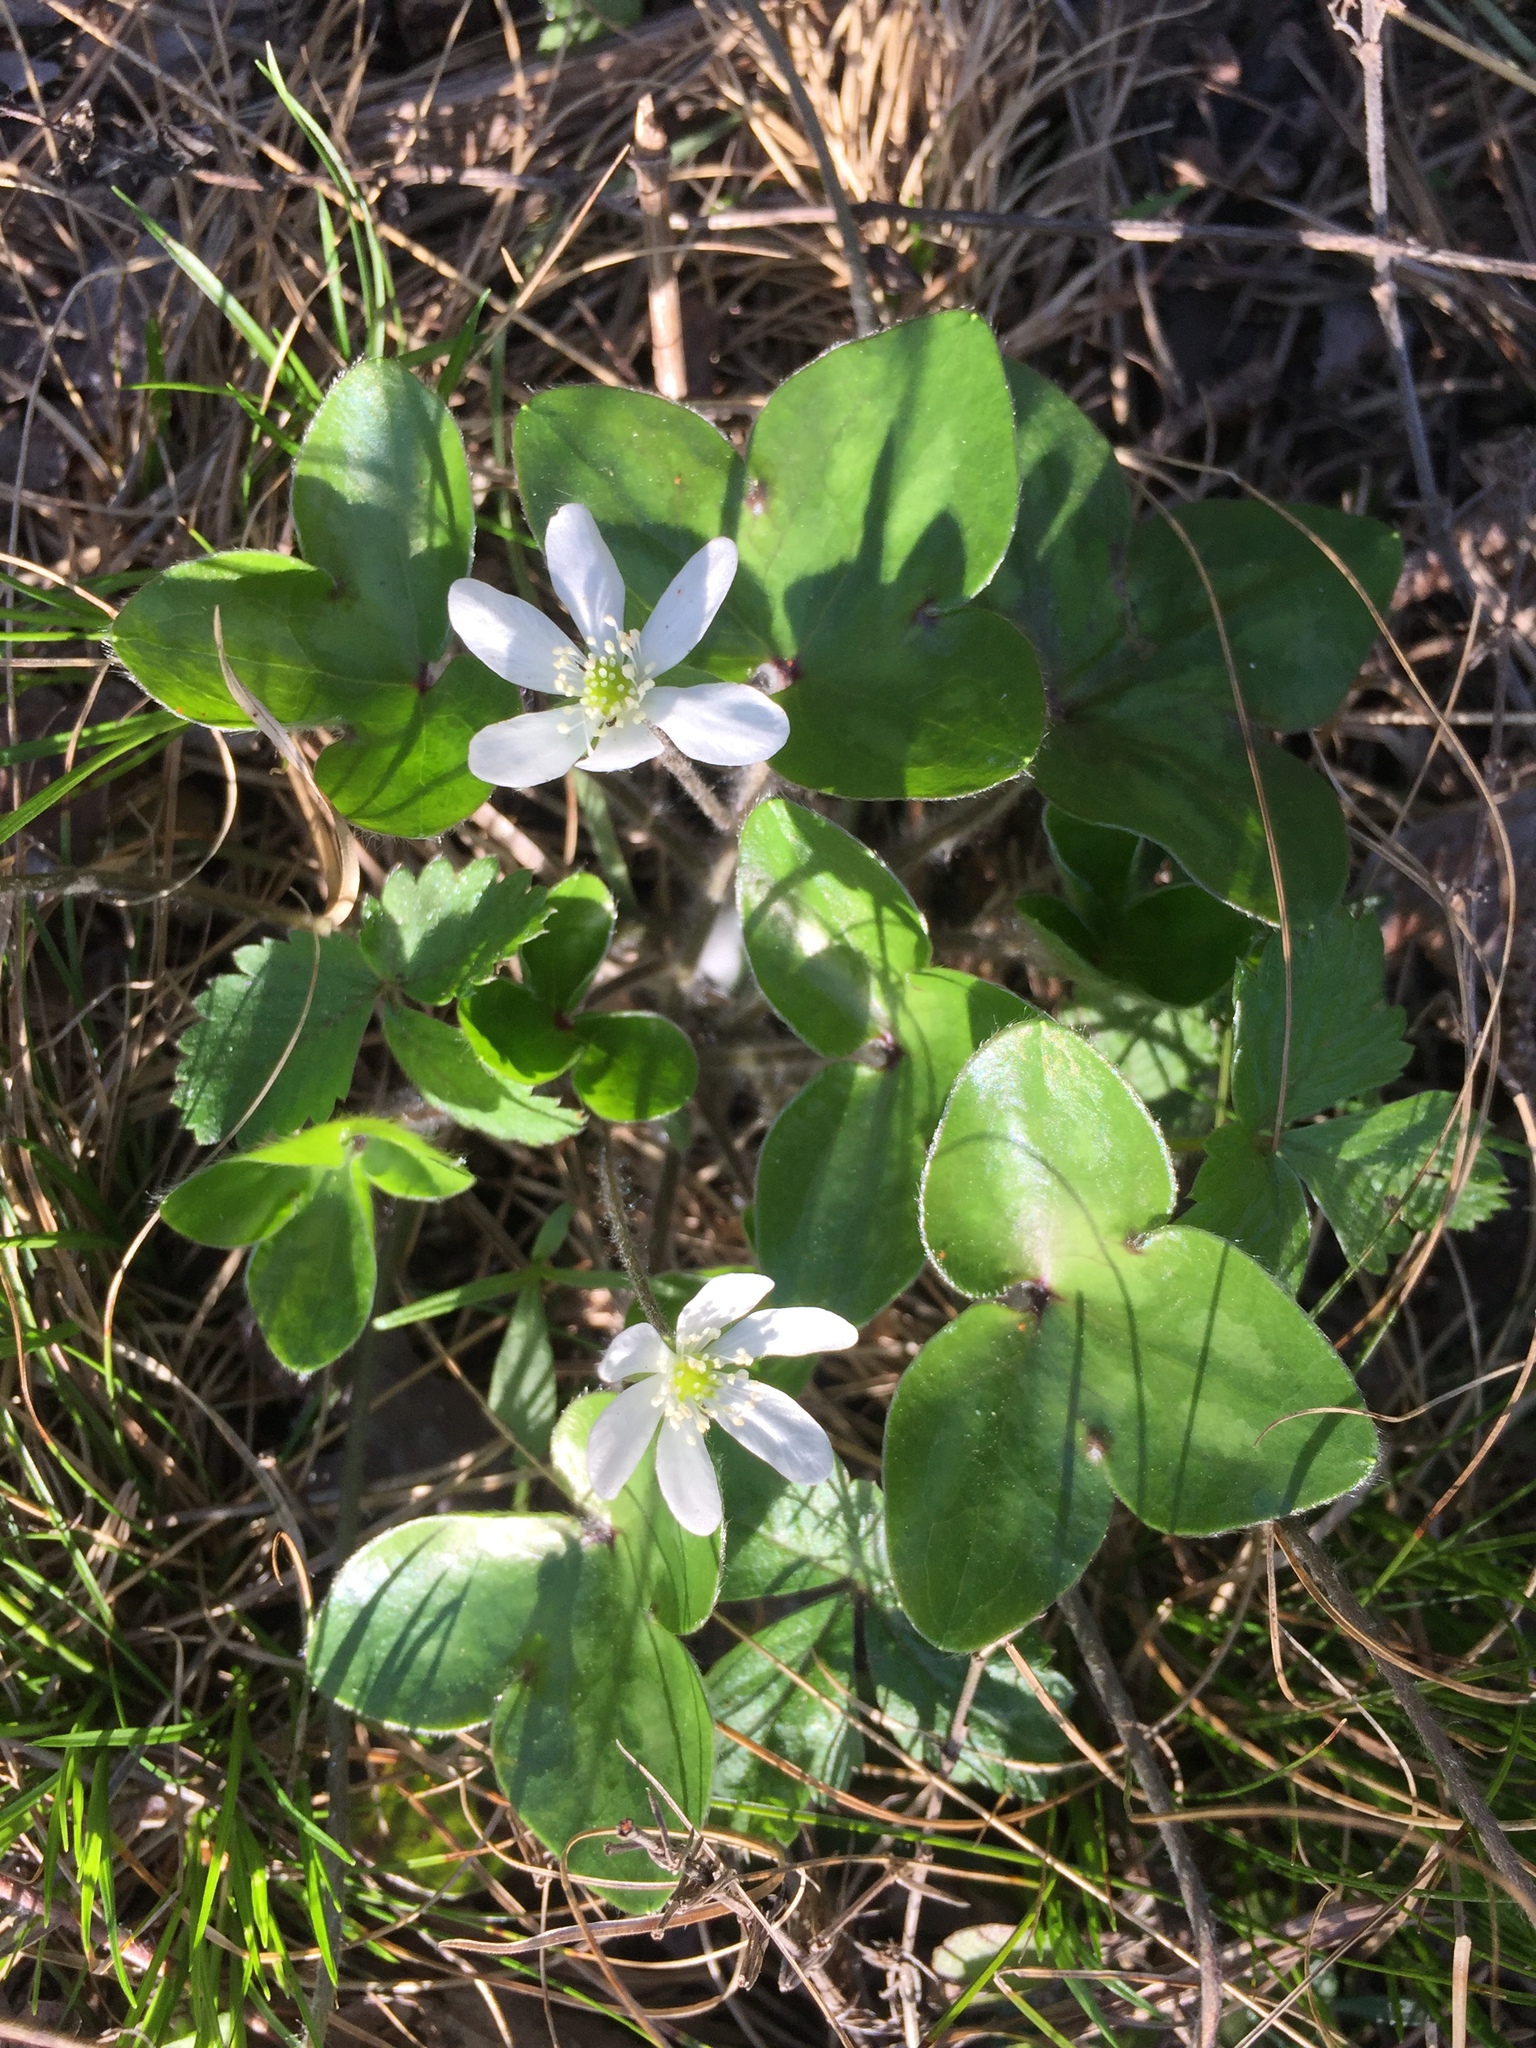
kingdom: Plantae
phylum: Tracheophyta
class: Magnoliopsida
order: Ranunculales
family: Ranunculaceae
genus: Hepatica
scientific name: Hepatica nobilis
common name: Liverleaf
